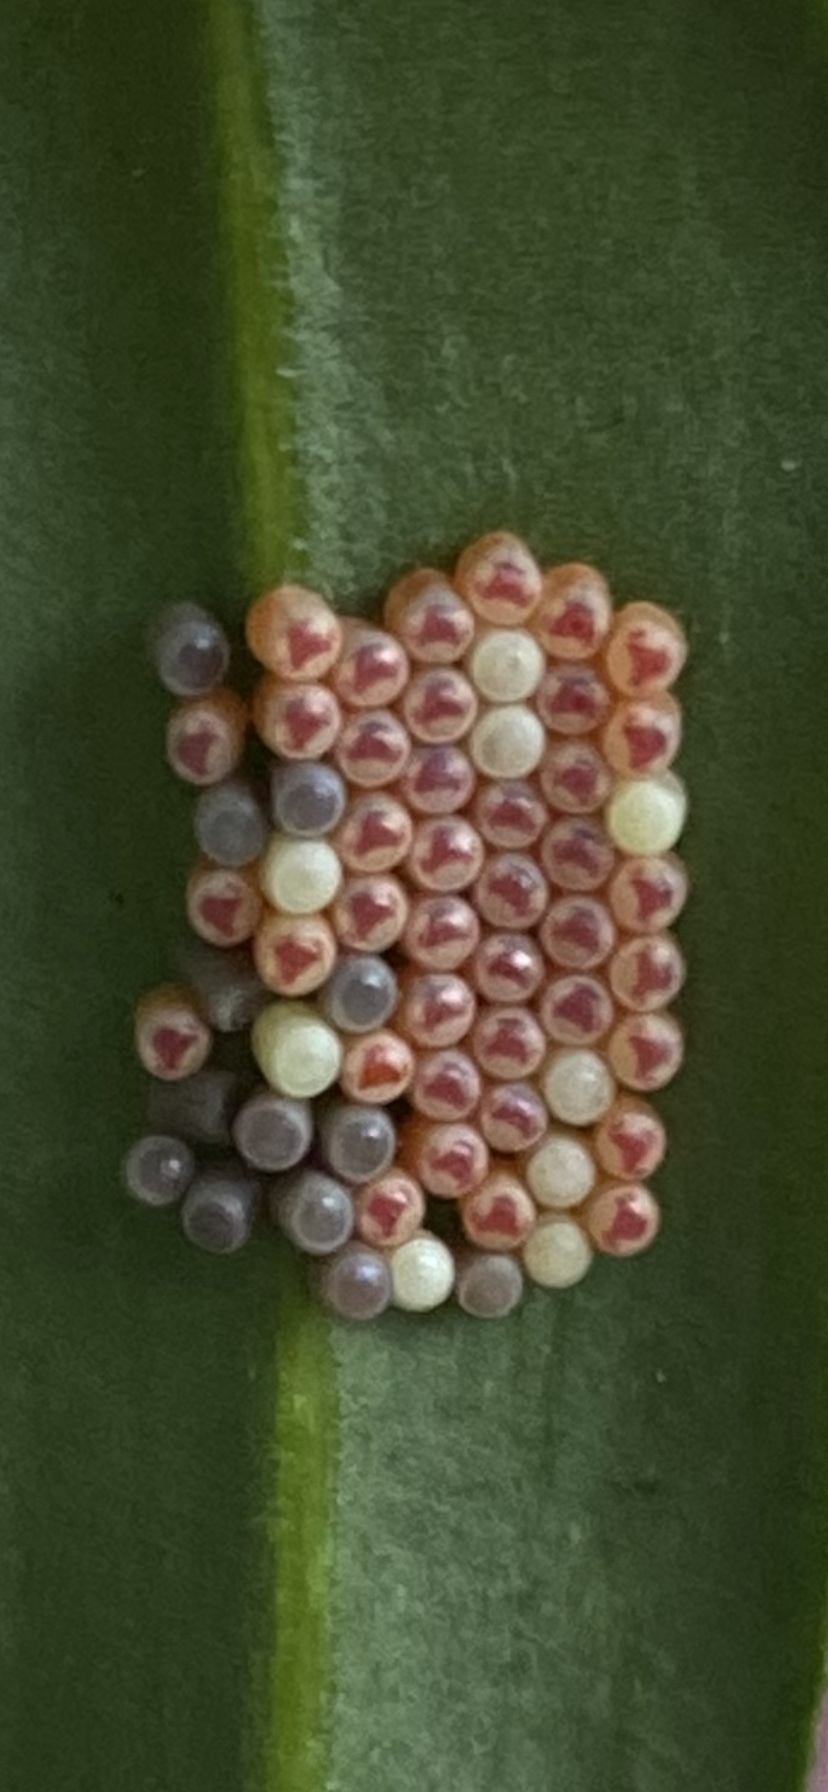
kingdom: Animalia
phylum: Arthropoda
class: Insecta
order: Hemiptera
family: Pentatomidae
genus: Nezara
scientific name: Nezara viridula
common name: Southern green stink bug
